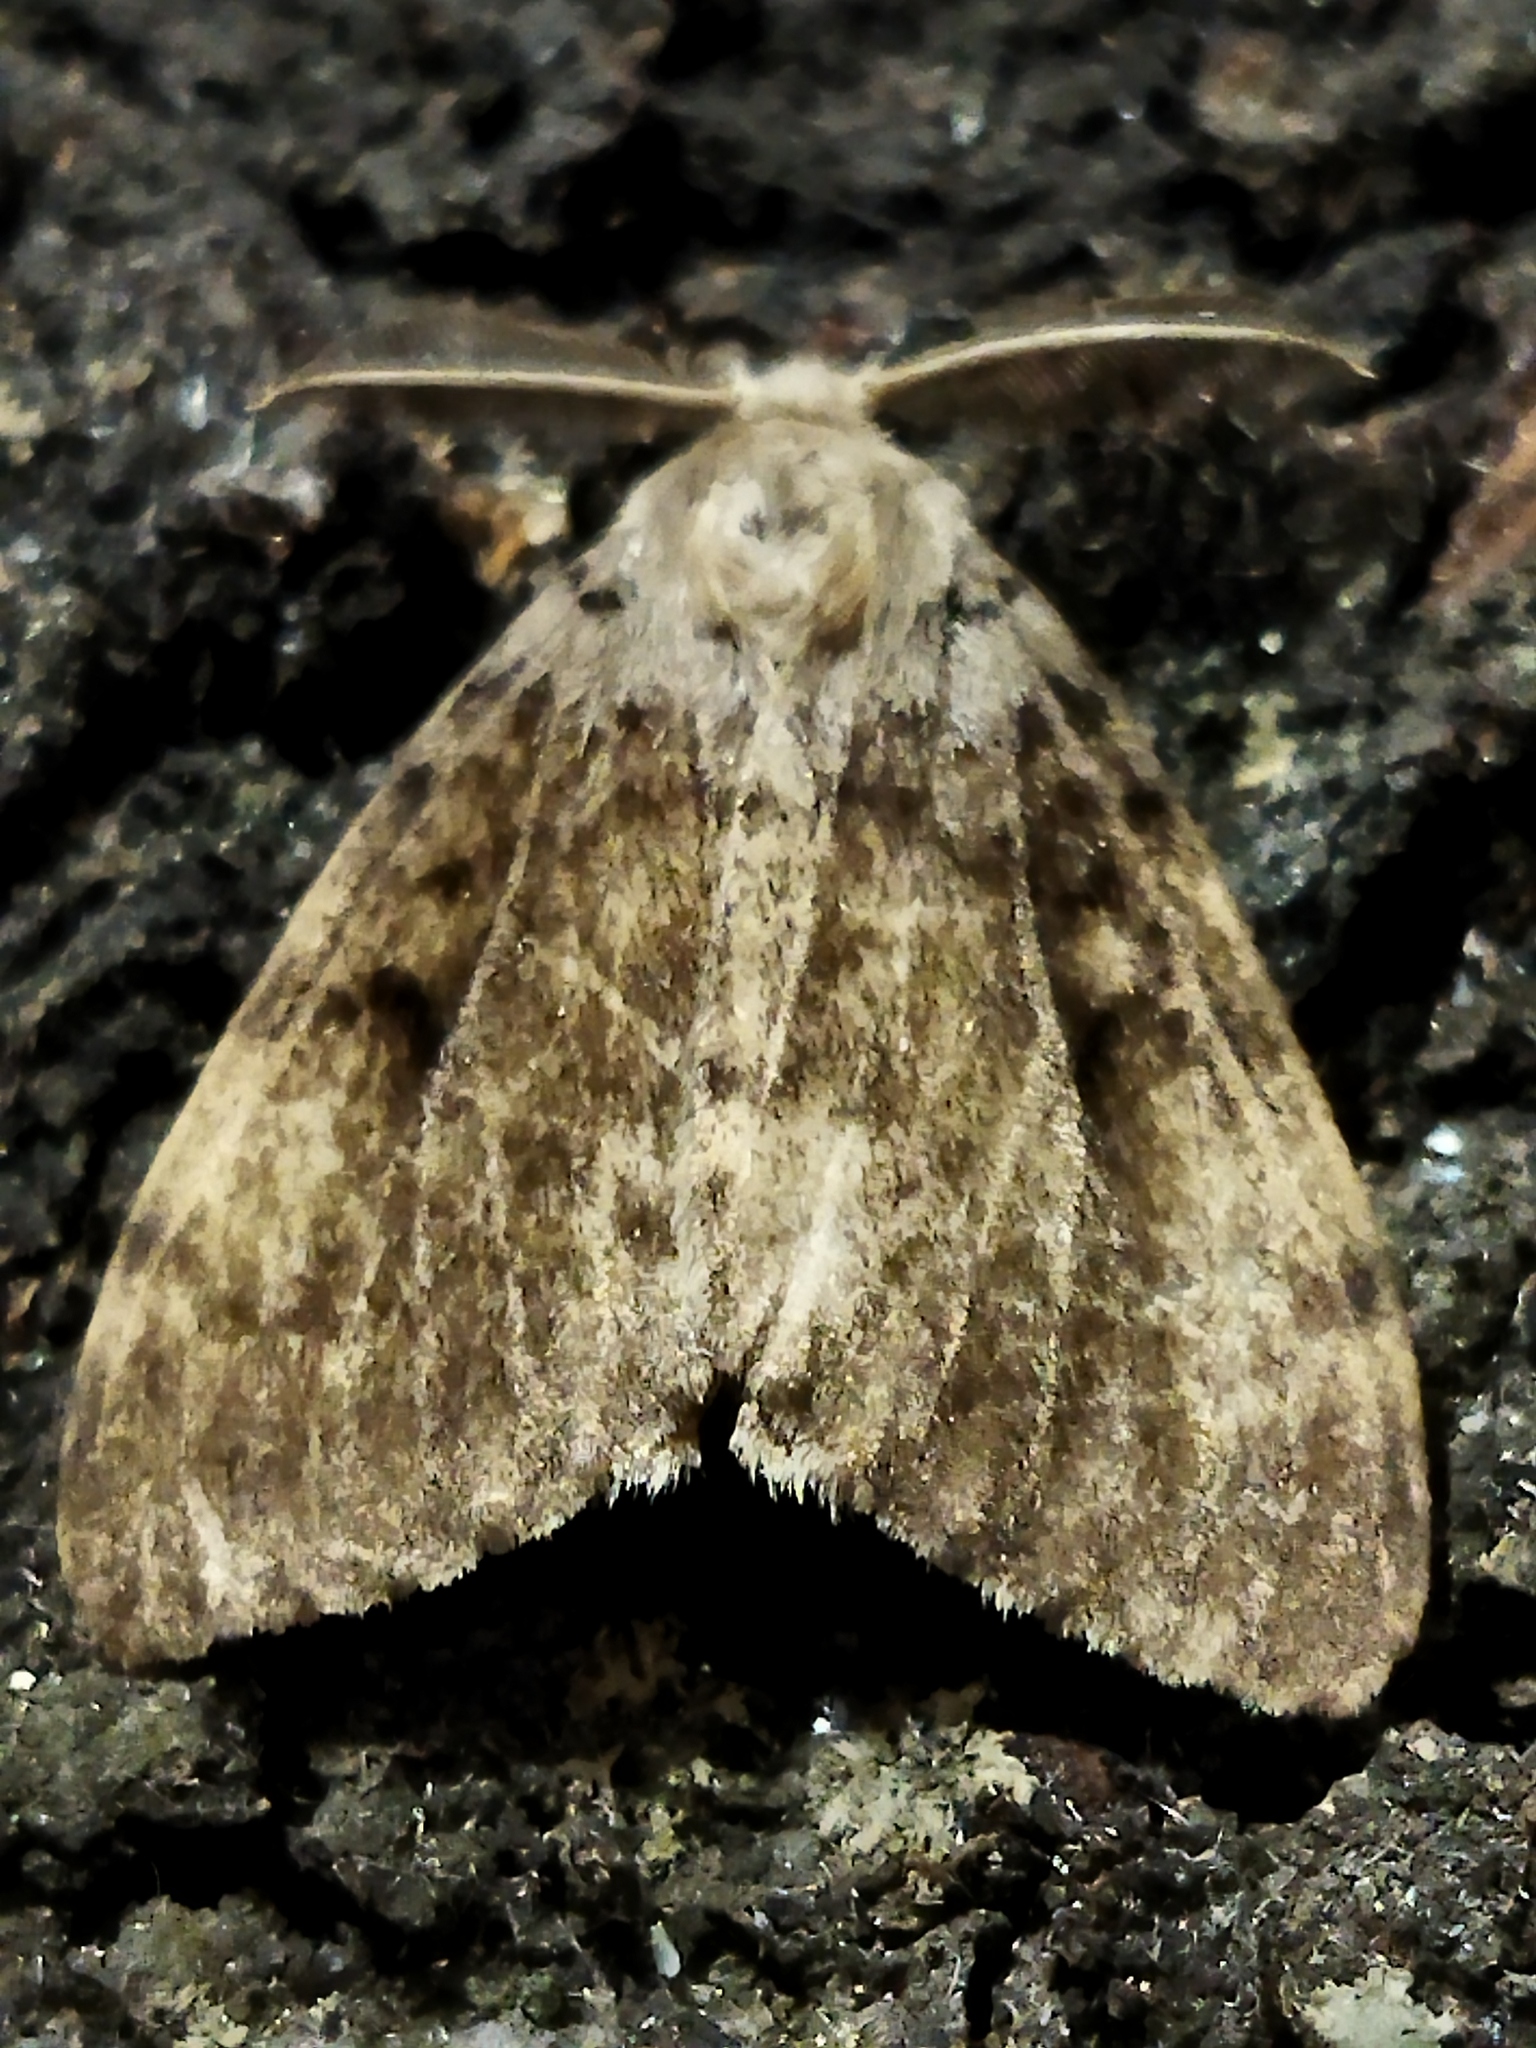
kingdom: Animalia
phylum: Arthropoda
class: Insecta
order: Lepidoptera
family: Erebidae
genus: Lymantria
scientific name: Lymantria dispar
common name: Gypsy moth
